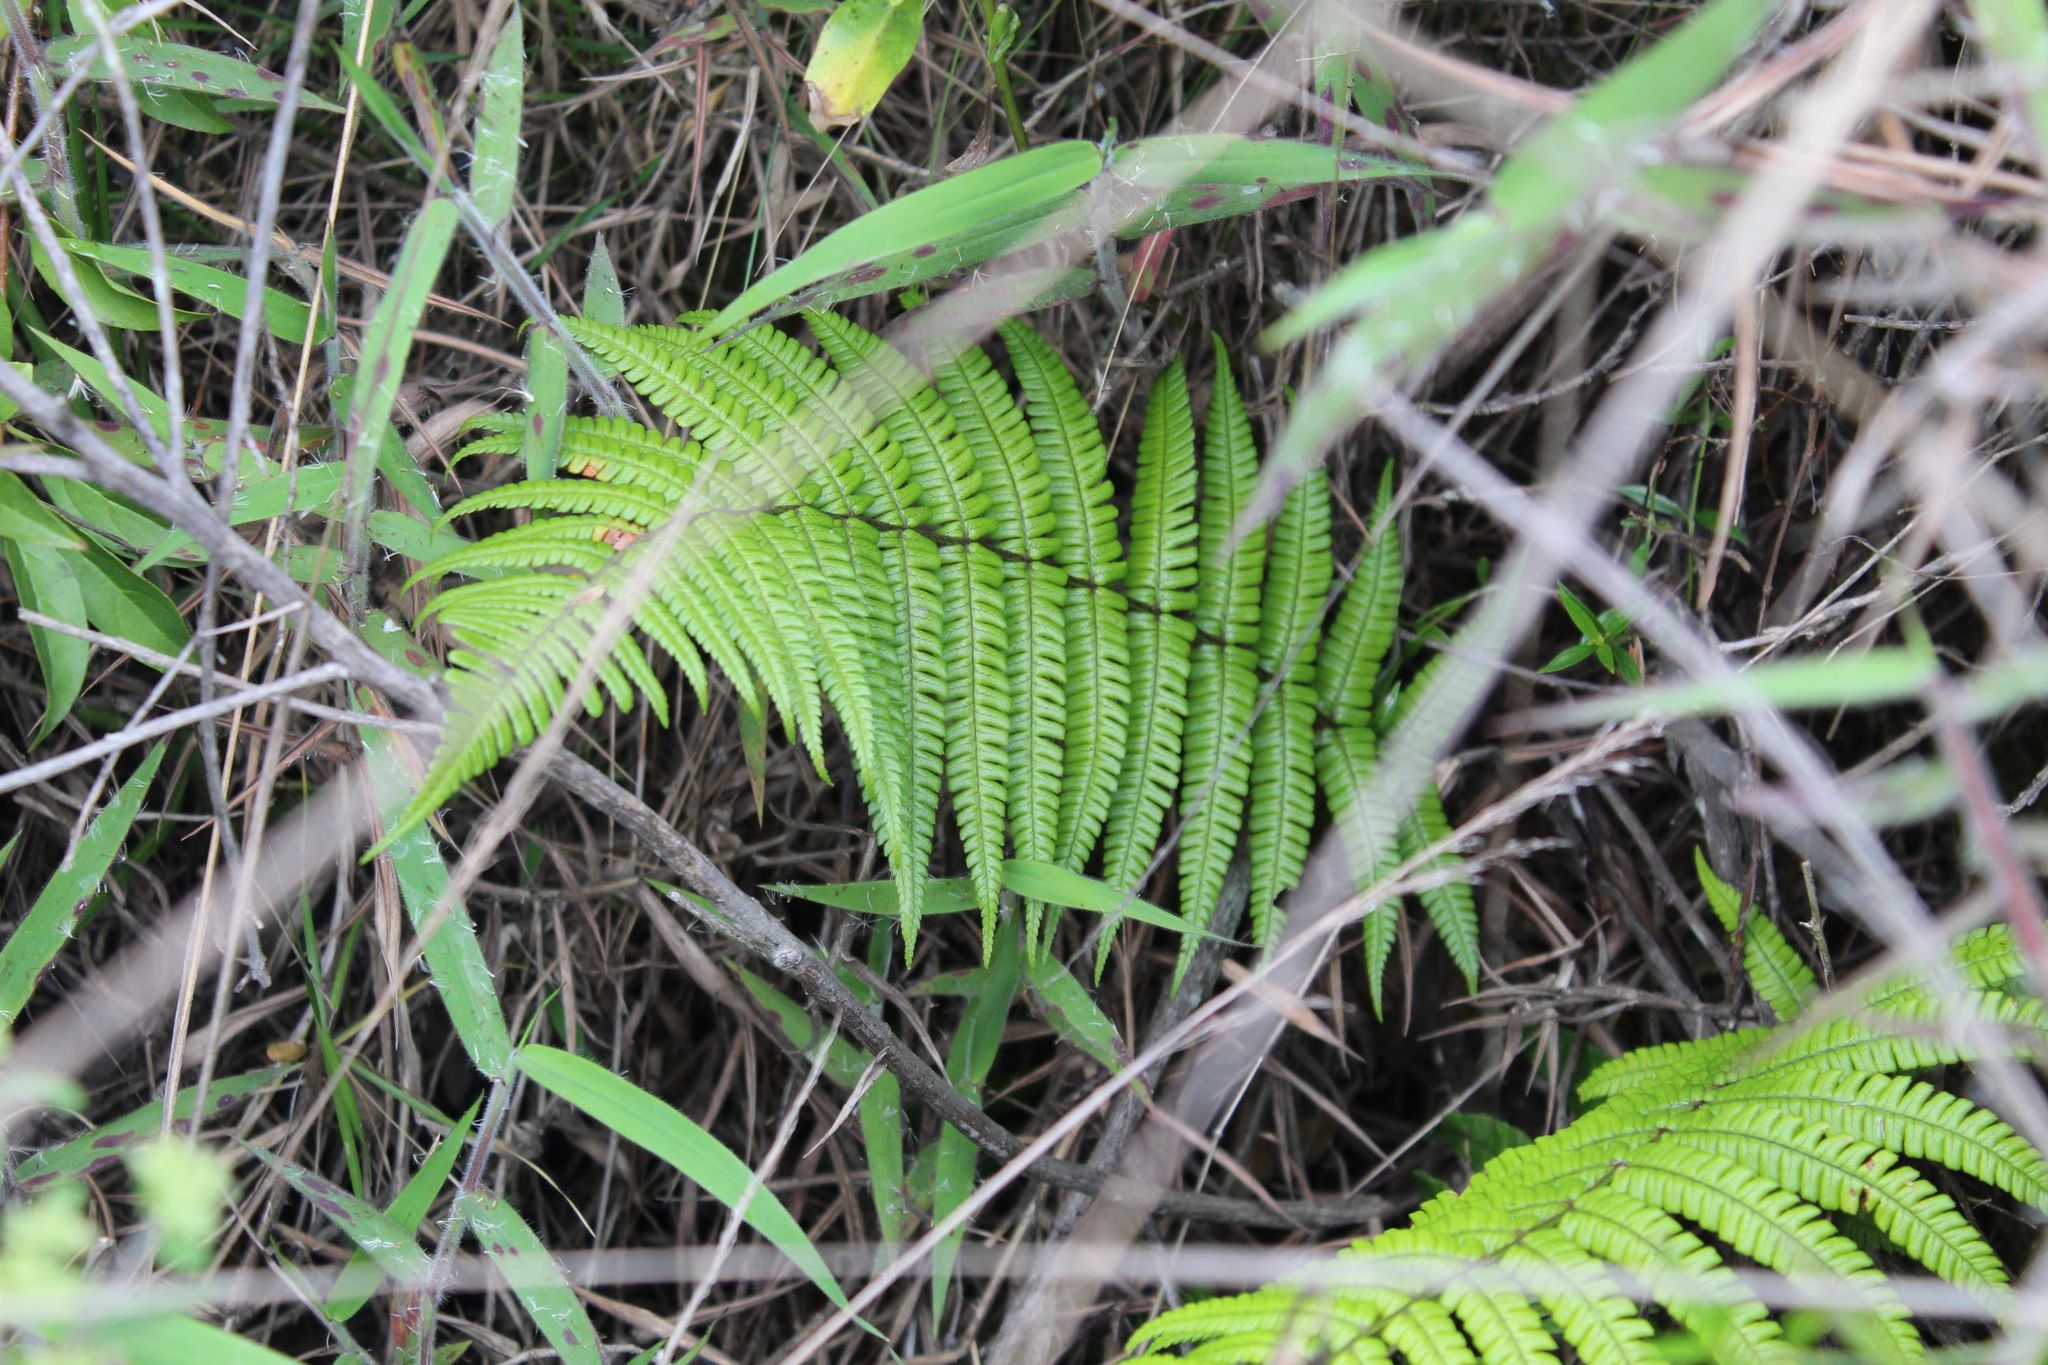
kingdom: Plantae
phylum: Tracheophyta
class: Polypodiopsida
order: Polypodiales
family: Dryopteridaceae
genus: Dryopteris
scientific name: Dryopteris wallichiana
